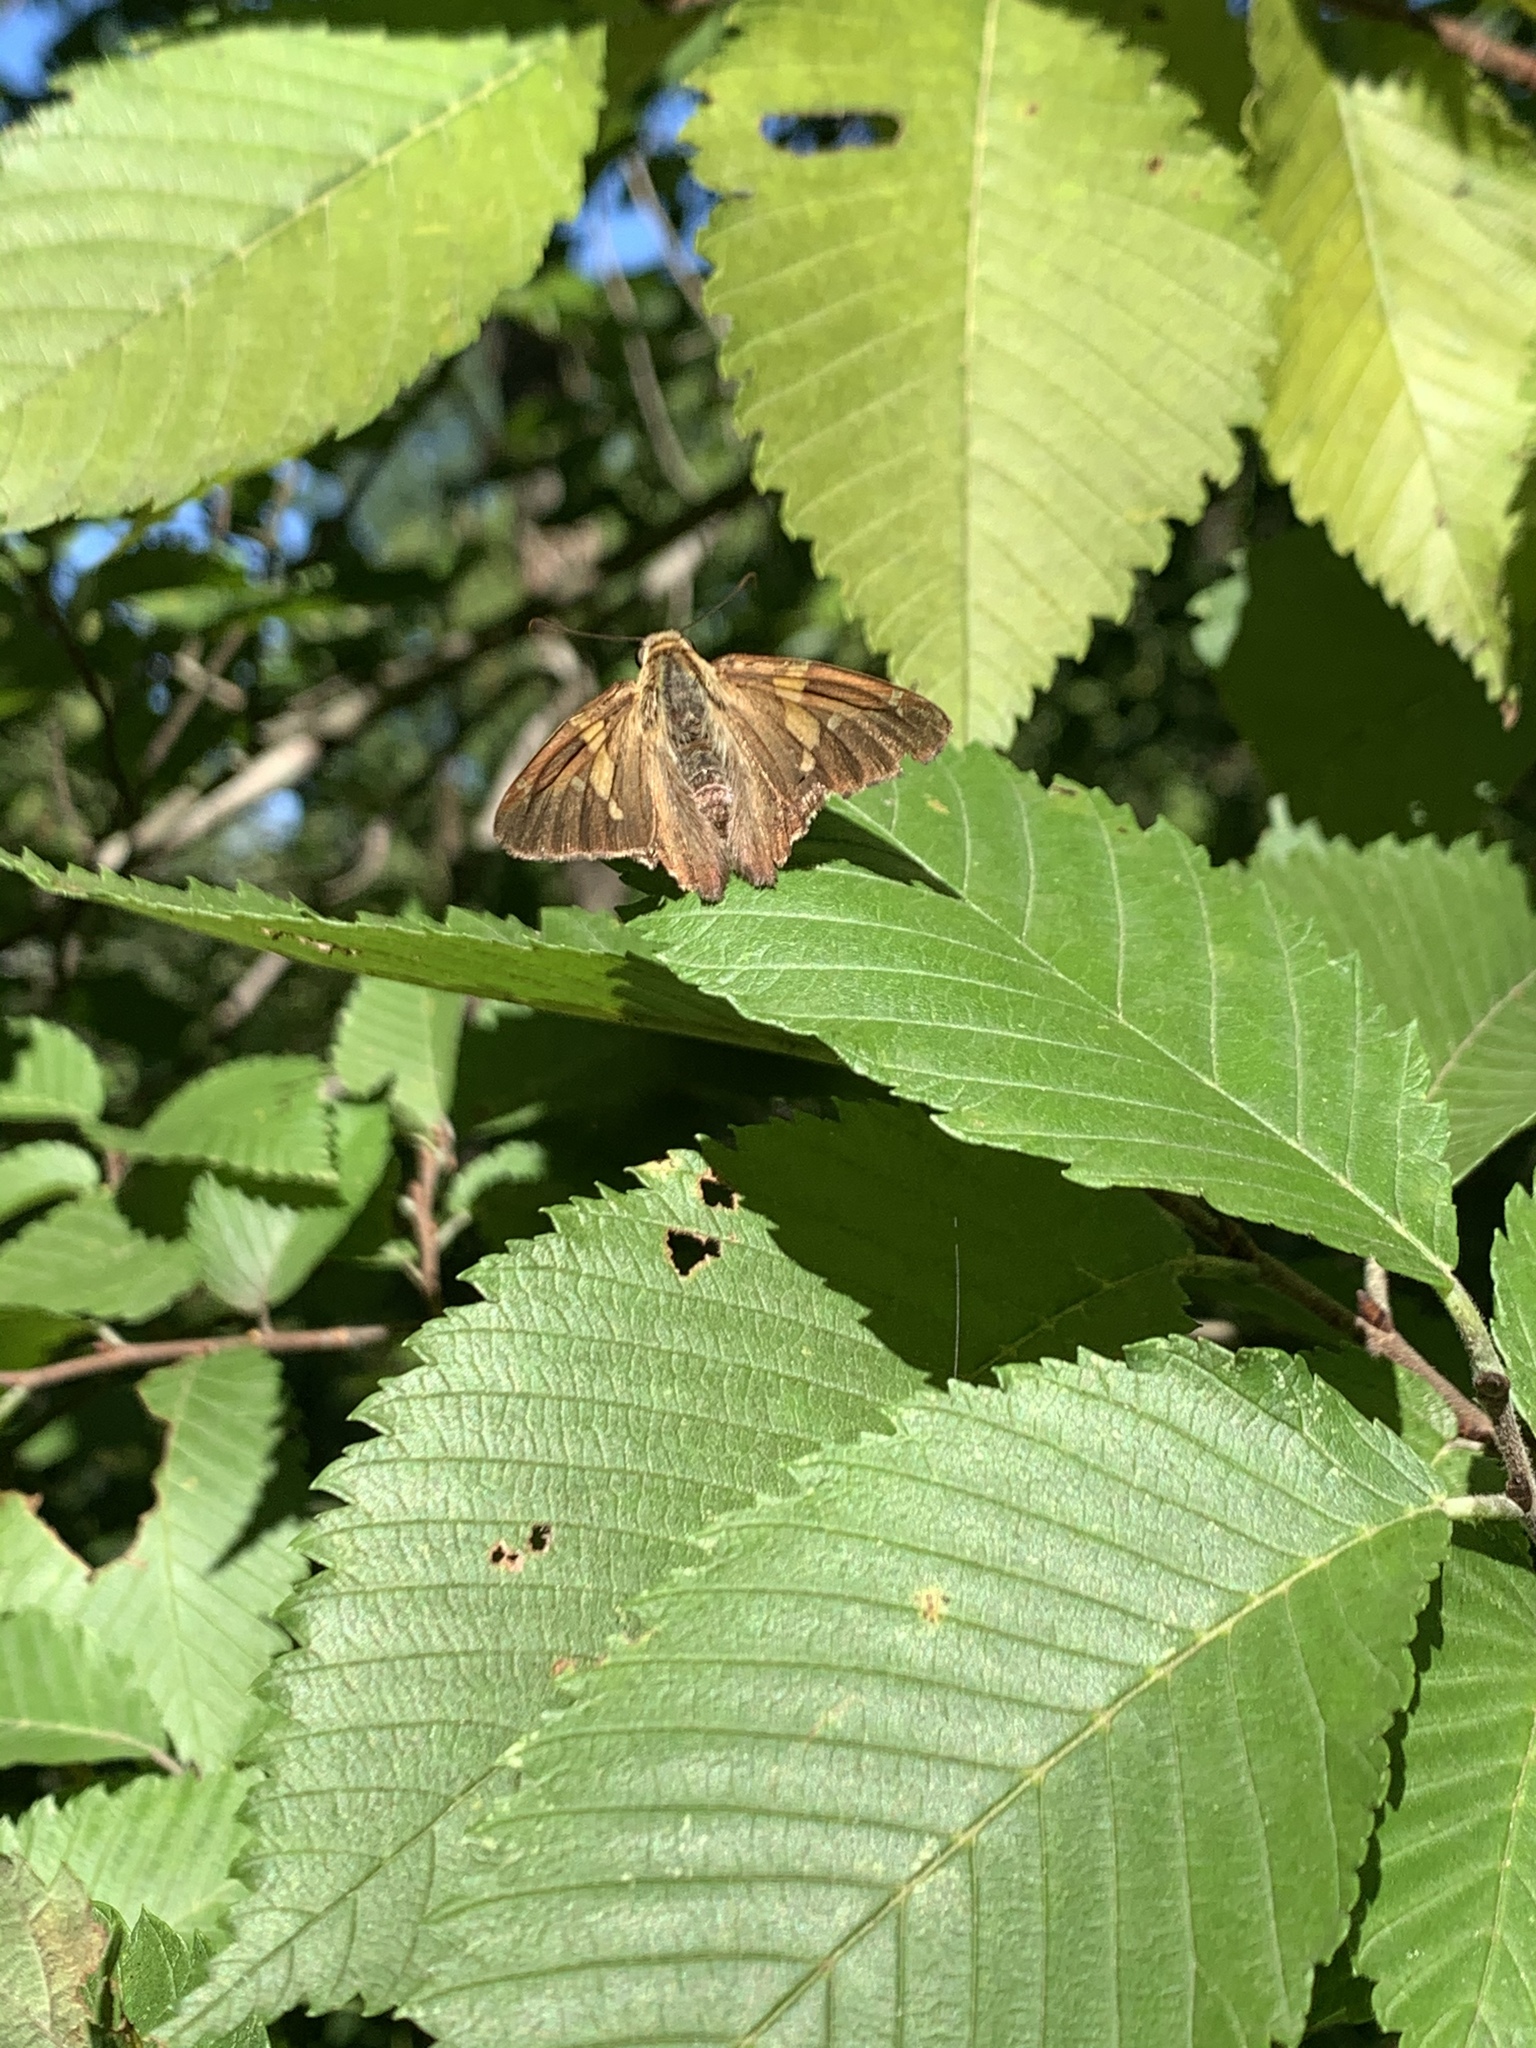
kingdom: Animalia
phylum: Arthropoda
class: Insecta
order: Lepidoptera
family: Hesperiidae
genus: Epargyreus
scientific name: Epargyreus clarus
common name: Silver-spotted skipper
